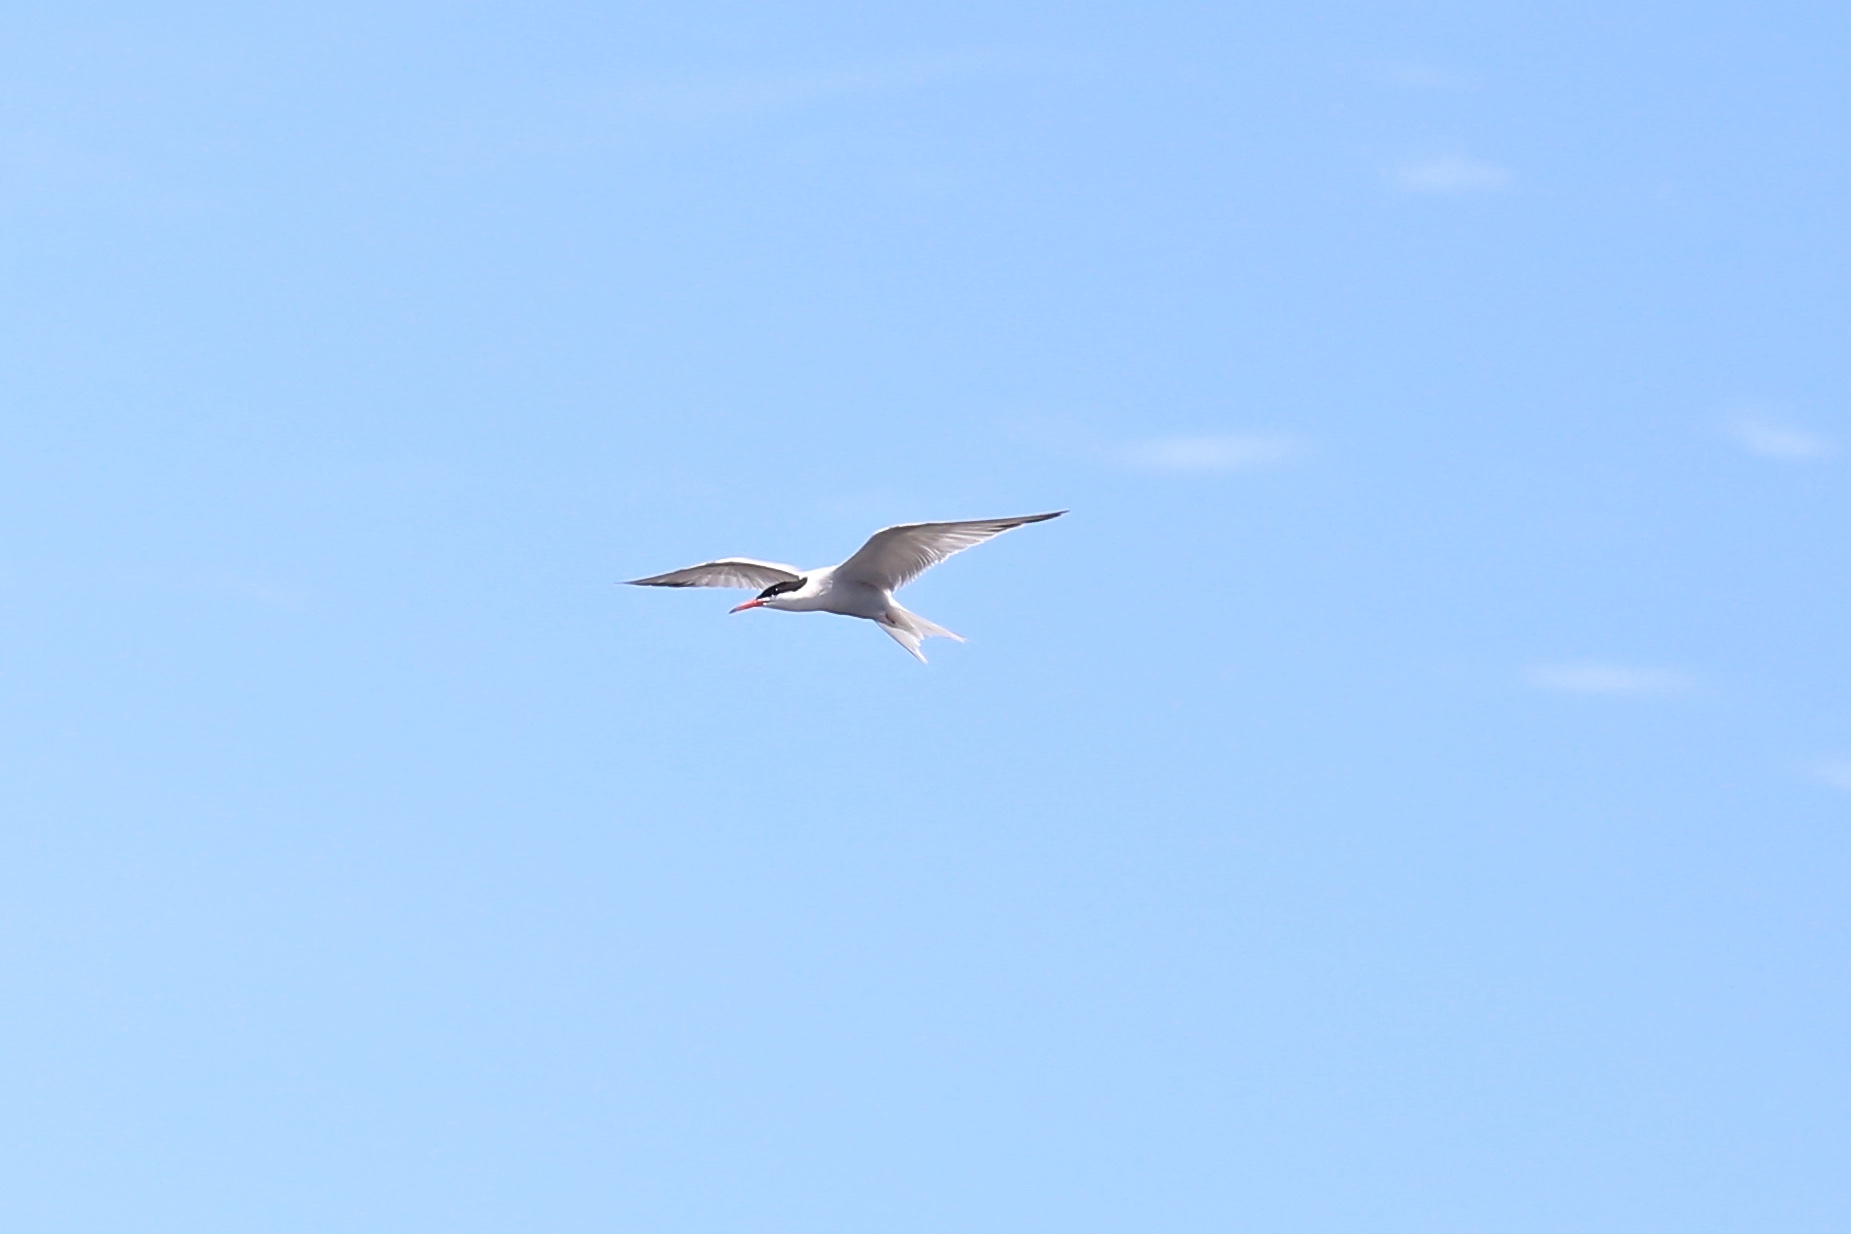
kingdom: Animalia
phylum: Chordata
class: Aves
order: Charadriiformes
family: Laridae
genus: Sterna
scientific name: Sterna hirundo
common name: Common tern
